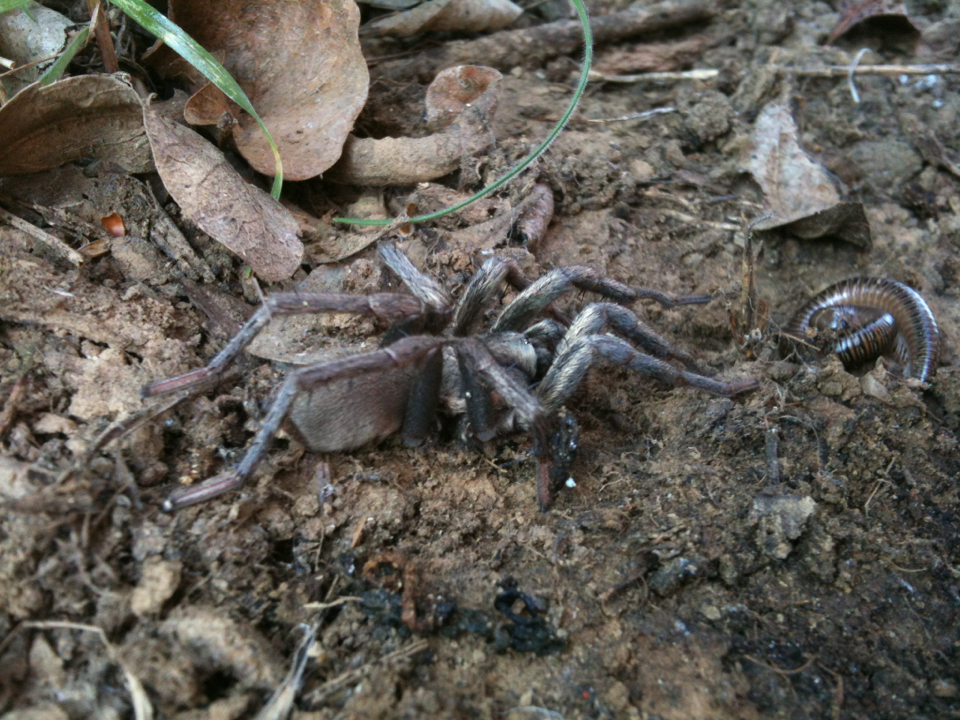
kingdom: Animalia
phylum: Arthropoda
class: Arachnida
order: Araneae
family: Nemesiidae
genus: Calisoga
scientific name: Calisoga longitarsis
